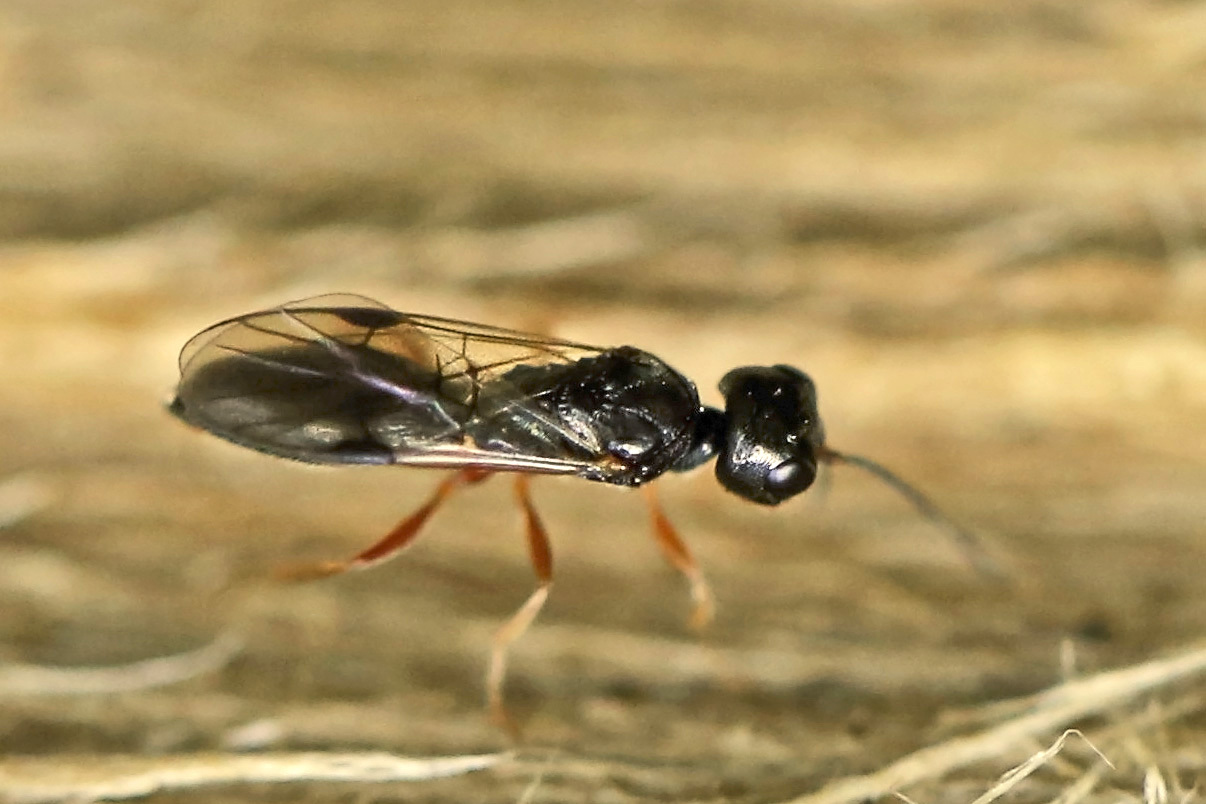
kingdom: Animalia
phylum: Arthropoda
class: Insecta
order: Hymenoptera
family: Vanhorniidae
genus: Vanhornia
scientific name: Vanhornia eucnemidarum
